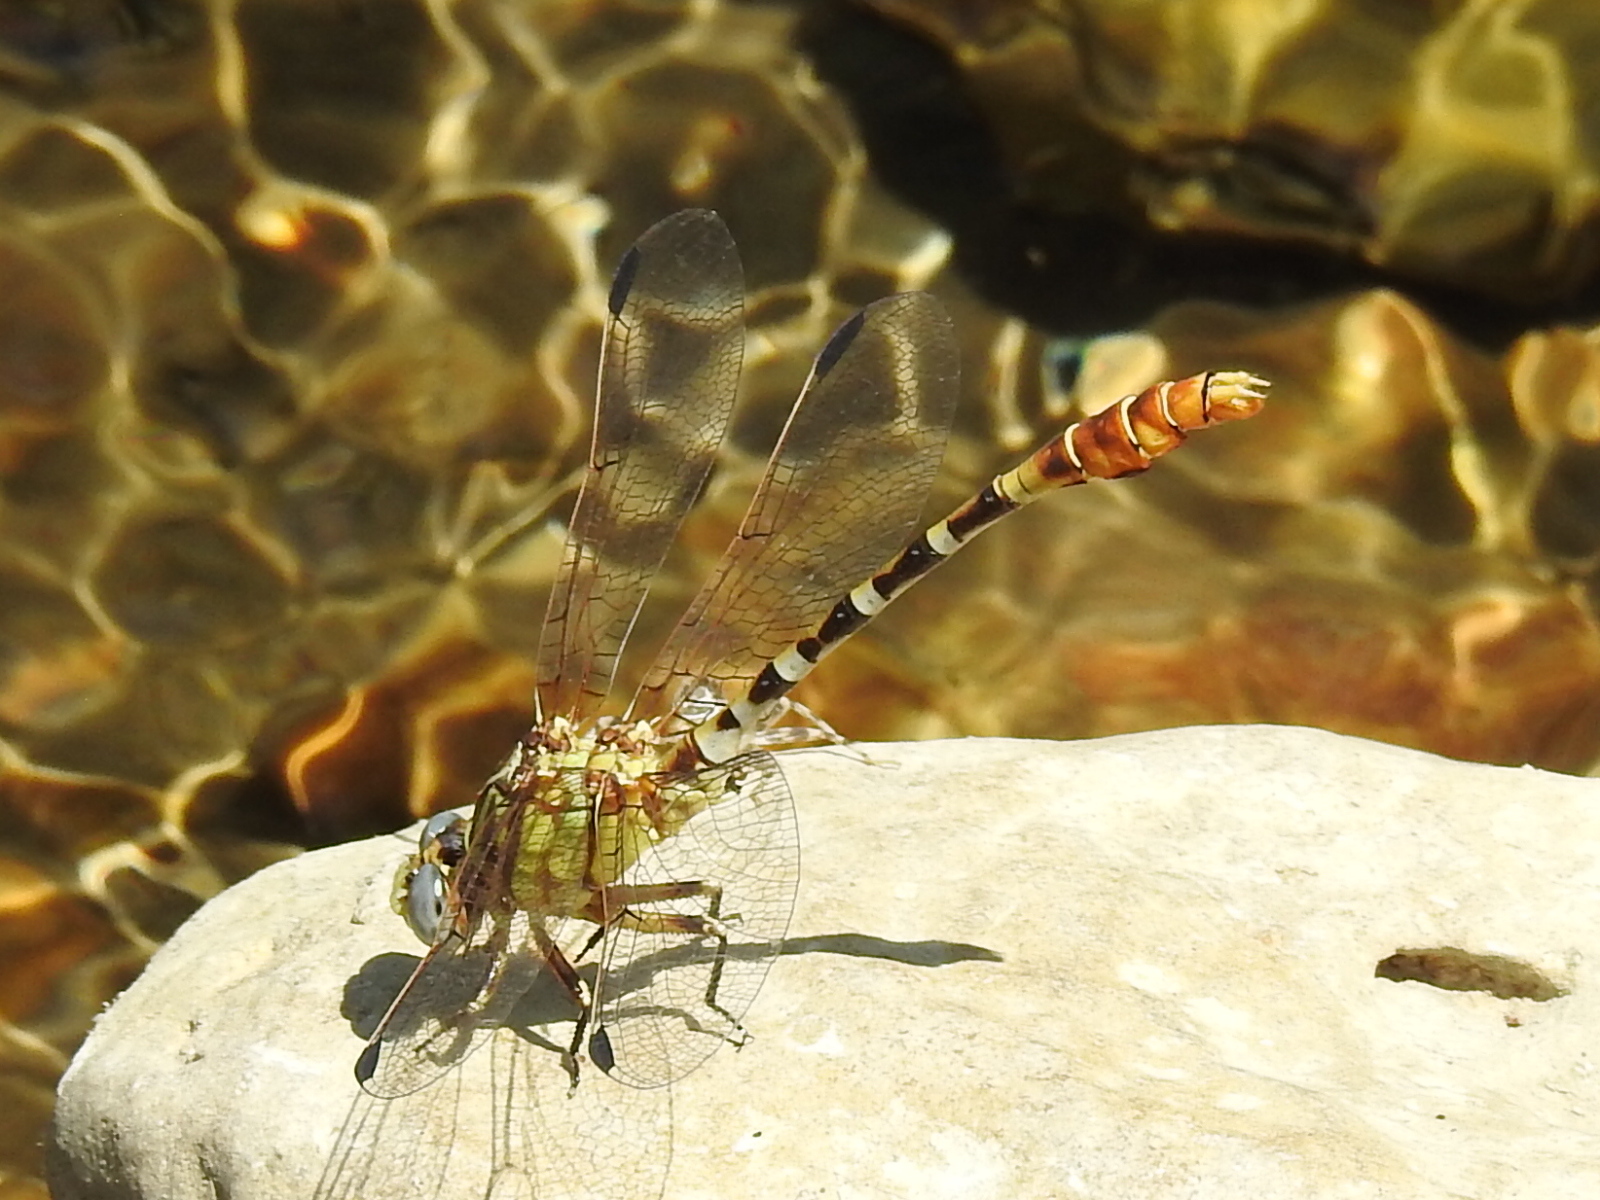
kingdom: Animalia
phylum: Arthropoda
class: Insecta
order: Odonata
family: Gomphidae
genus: Erpetogomphus
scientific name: Erpetogomphus designatus
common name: Eastern ringtail
